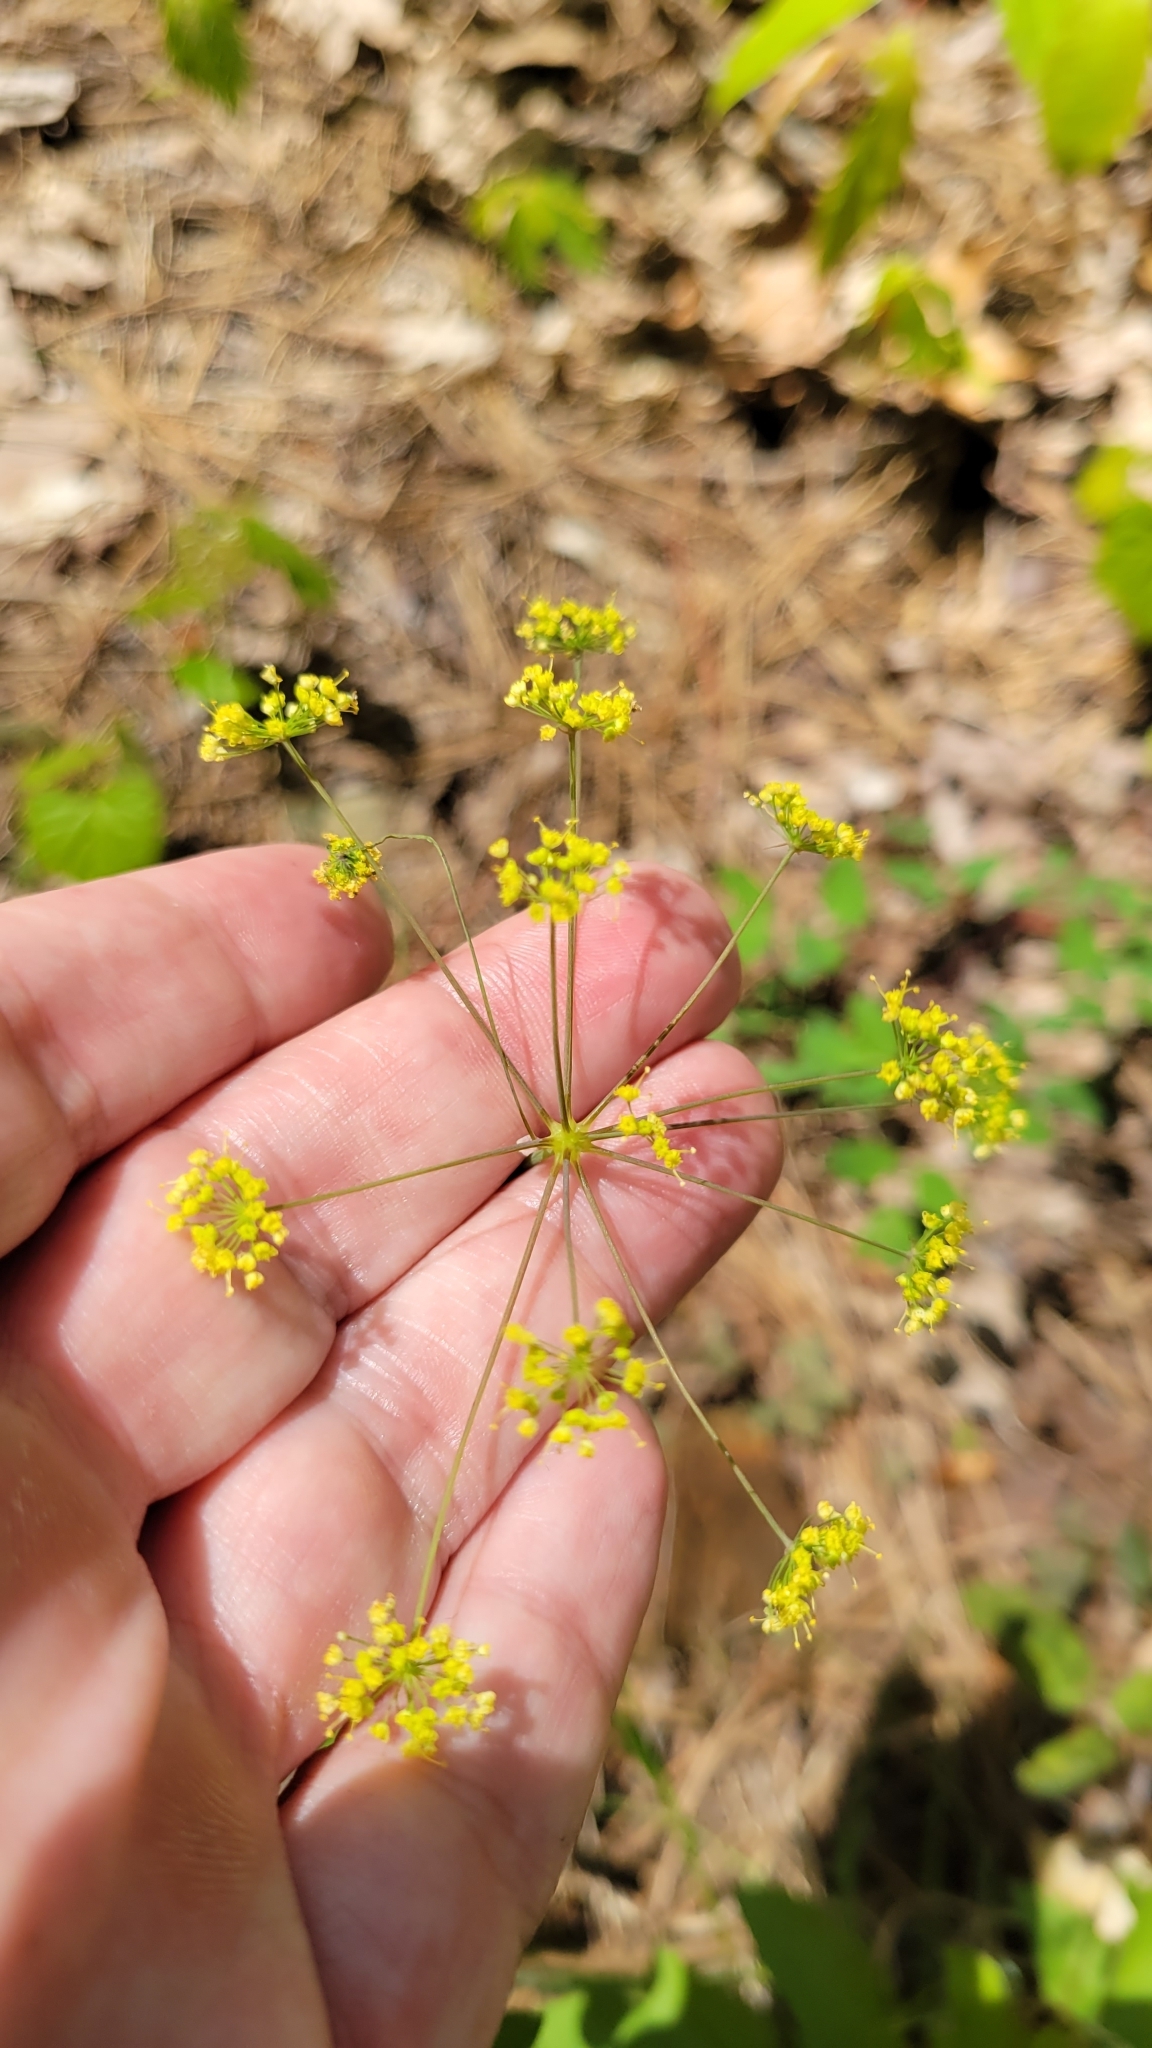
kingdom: Plantae
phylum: Tracheophyta
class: Magnoliopsida
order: Apiales
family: Apiaceae
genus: Taenidia
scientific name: Taenidia integerrima
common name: Golden alexander
